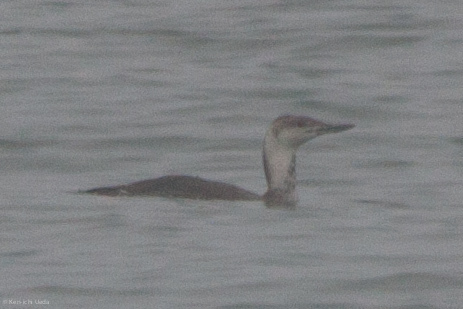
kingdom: Animalia
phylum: Chordata
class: Aves
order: Gaviiformes
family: Gaviidae
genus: Gavia
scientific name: Gavia stellata
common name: Red-throated loon
